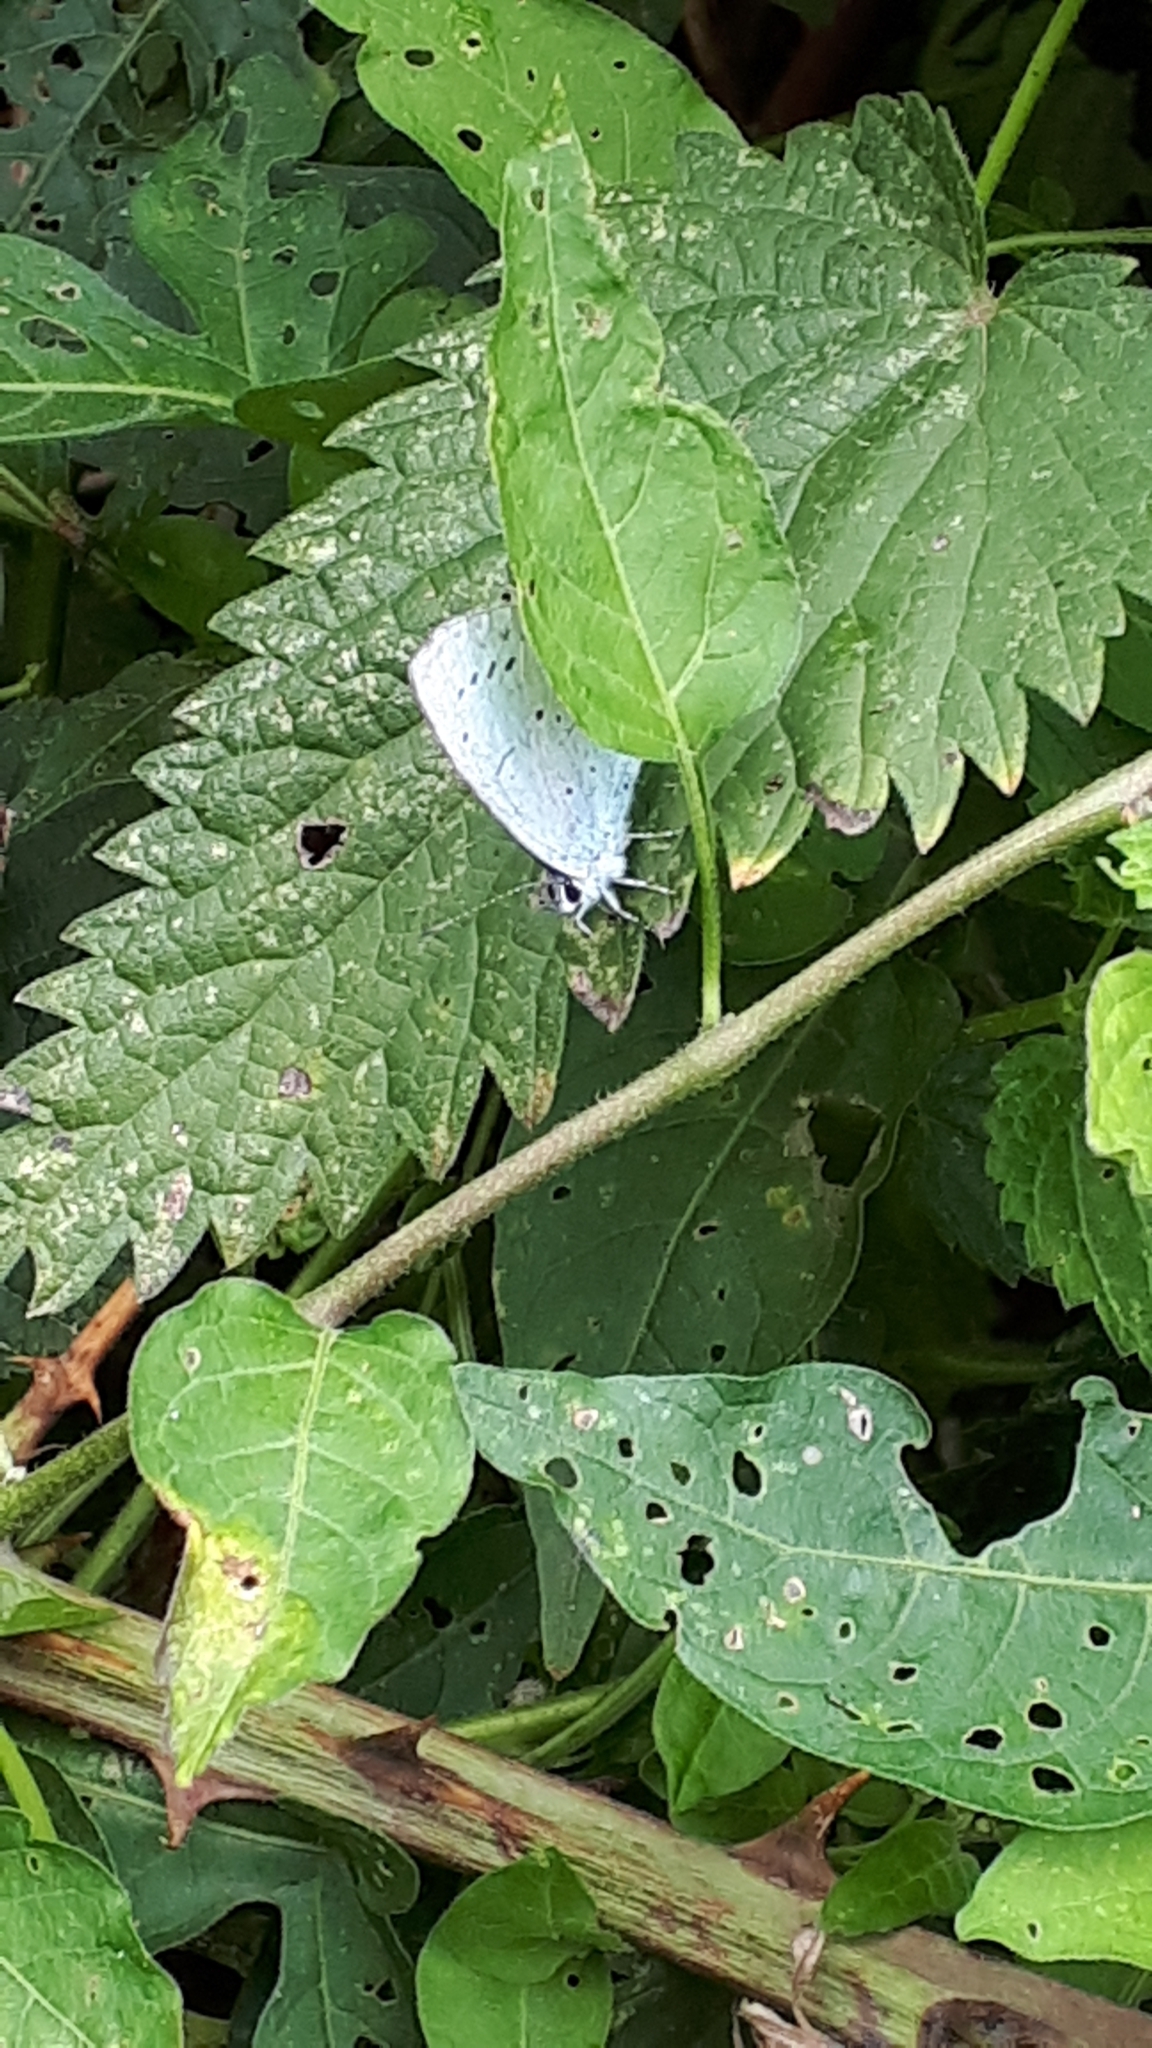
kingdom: Animalia
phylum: Arthropoda
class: Insecta
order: Lepidoptera
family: Lycaenidae
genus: Celastrina
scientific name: Celastrina argiolus
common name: Holly blue
